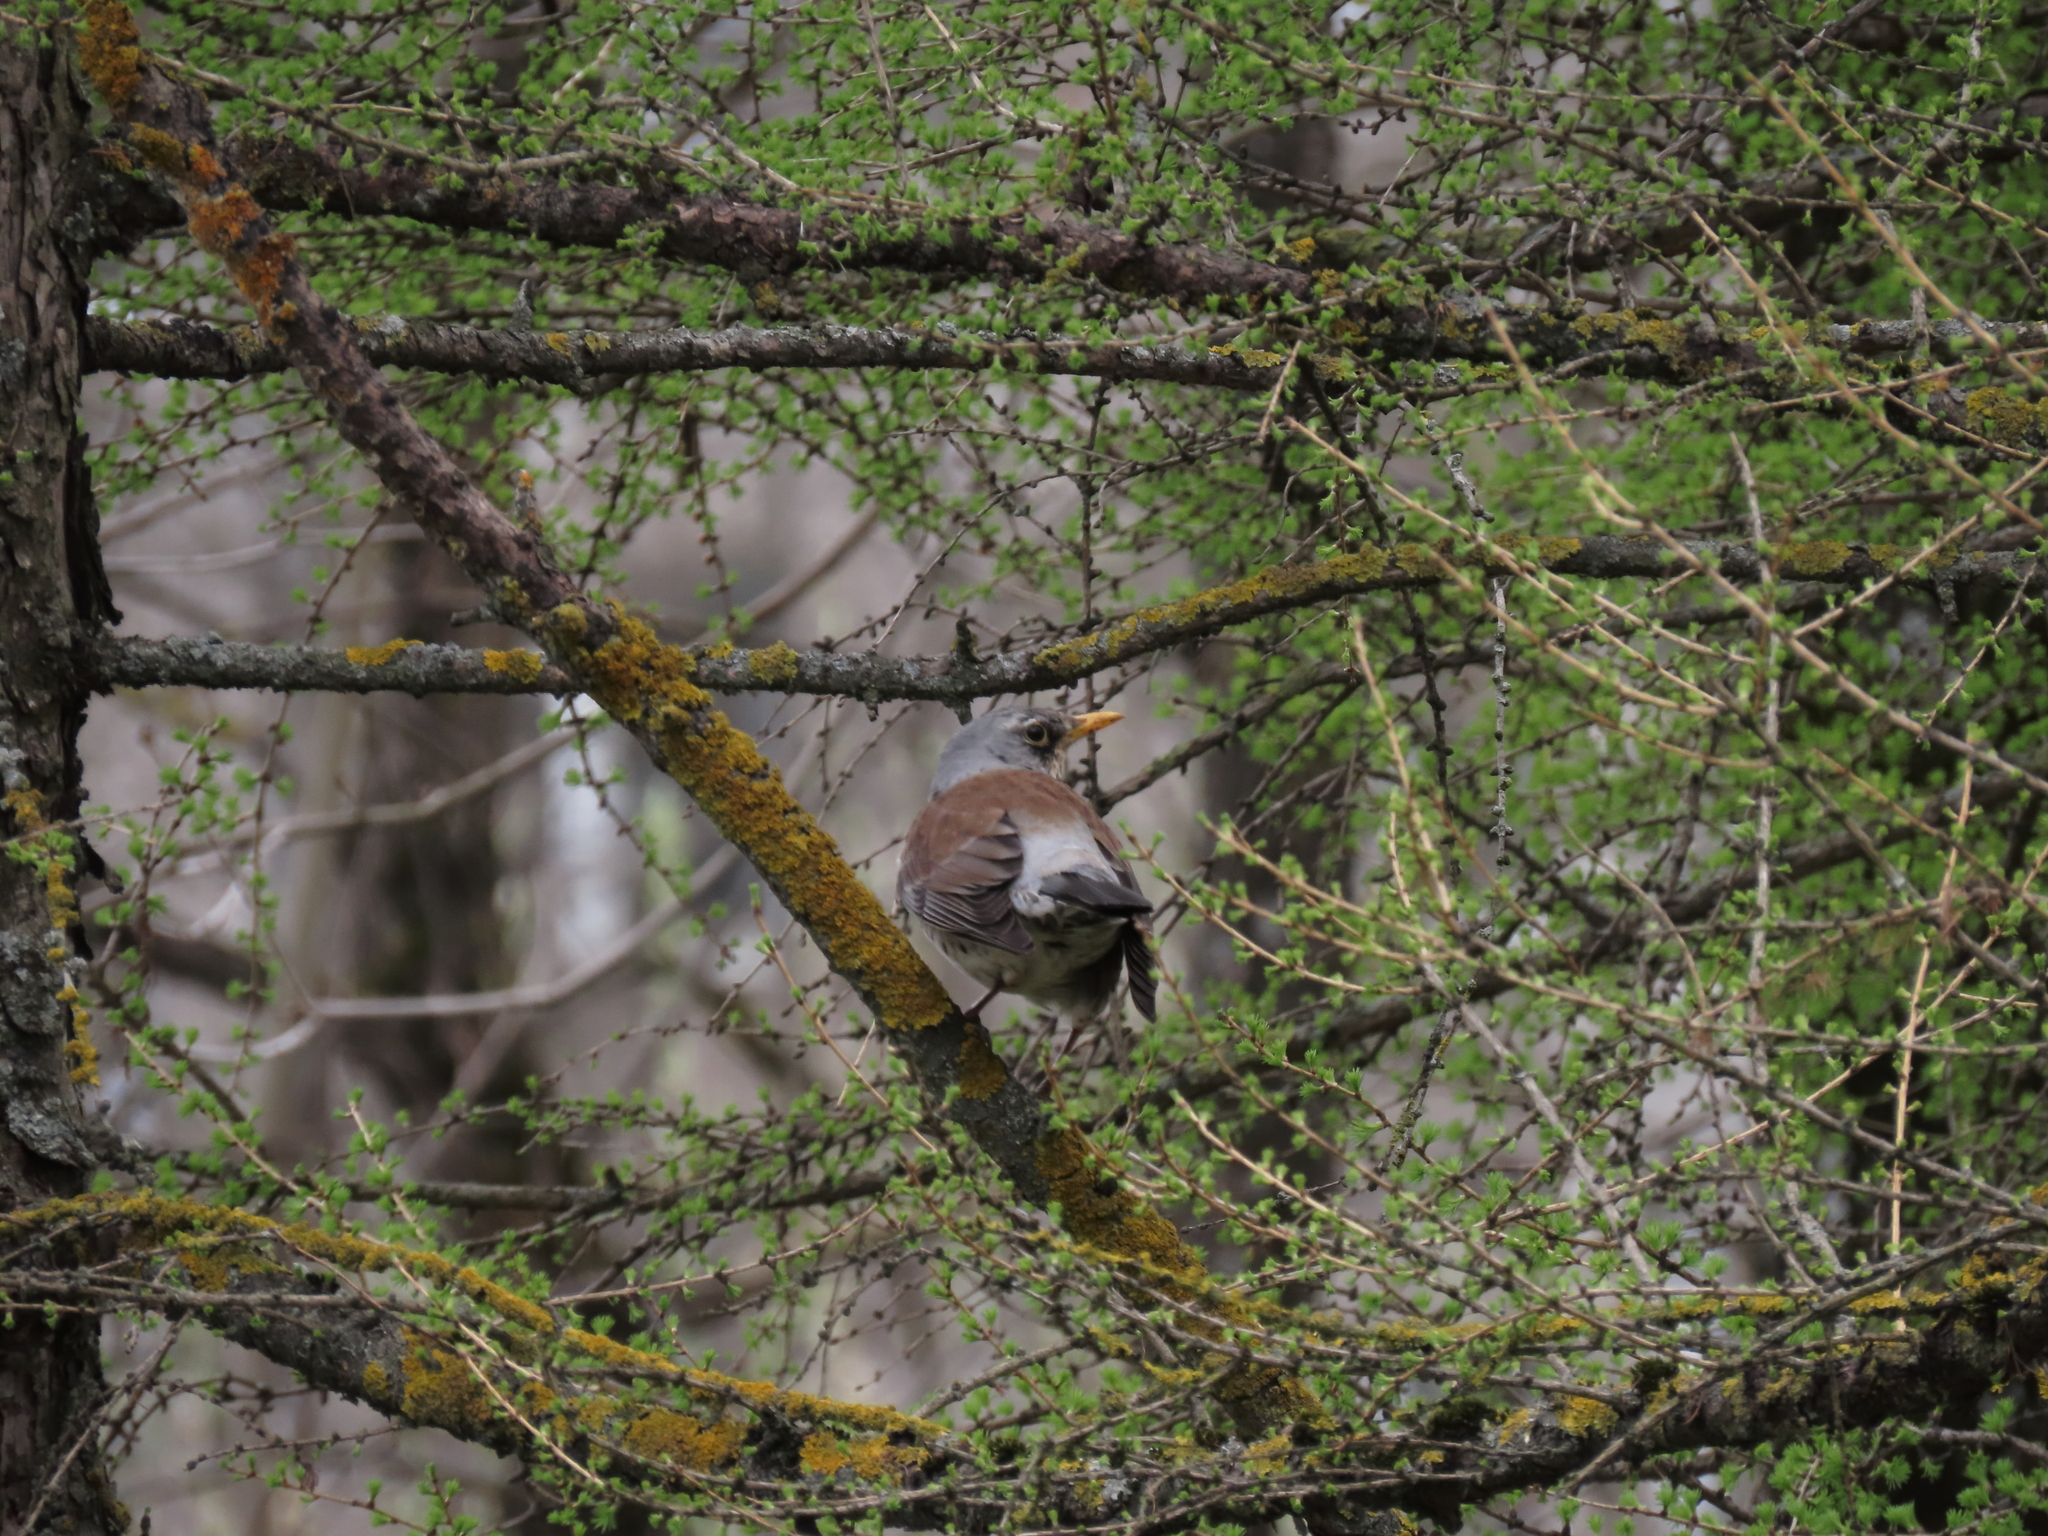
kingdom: Animalia
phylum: Chordata
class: Aves
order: Passeriformes
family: Turdidae
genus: Turdus
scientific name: Turdus pilaris
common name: Fieldfare
